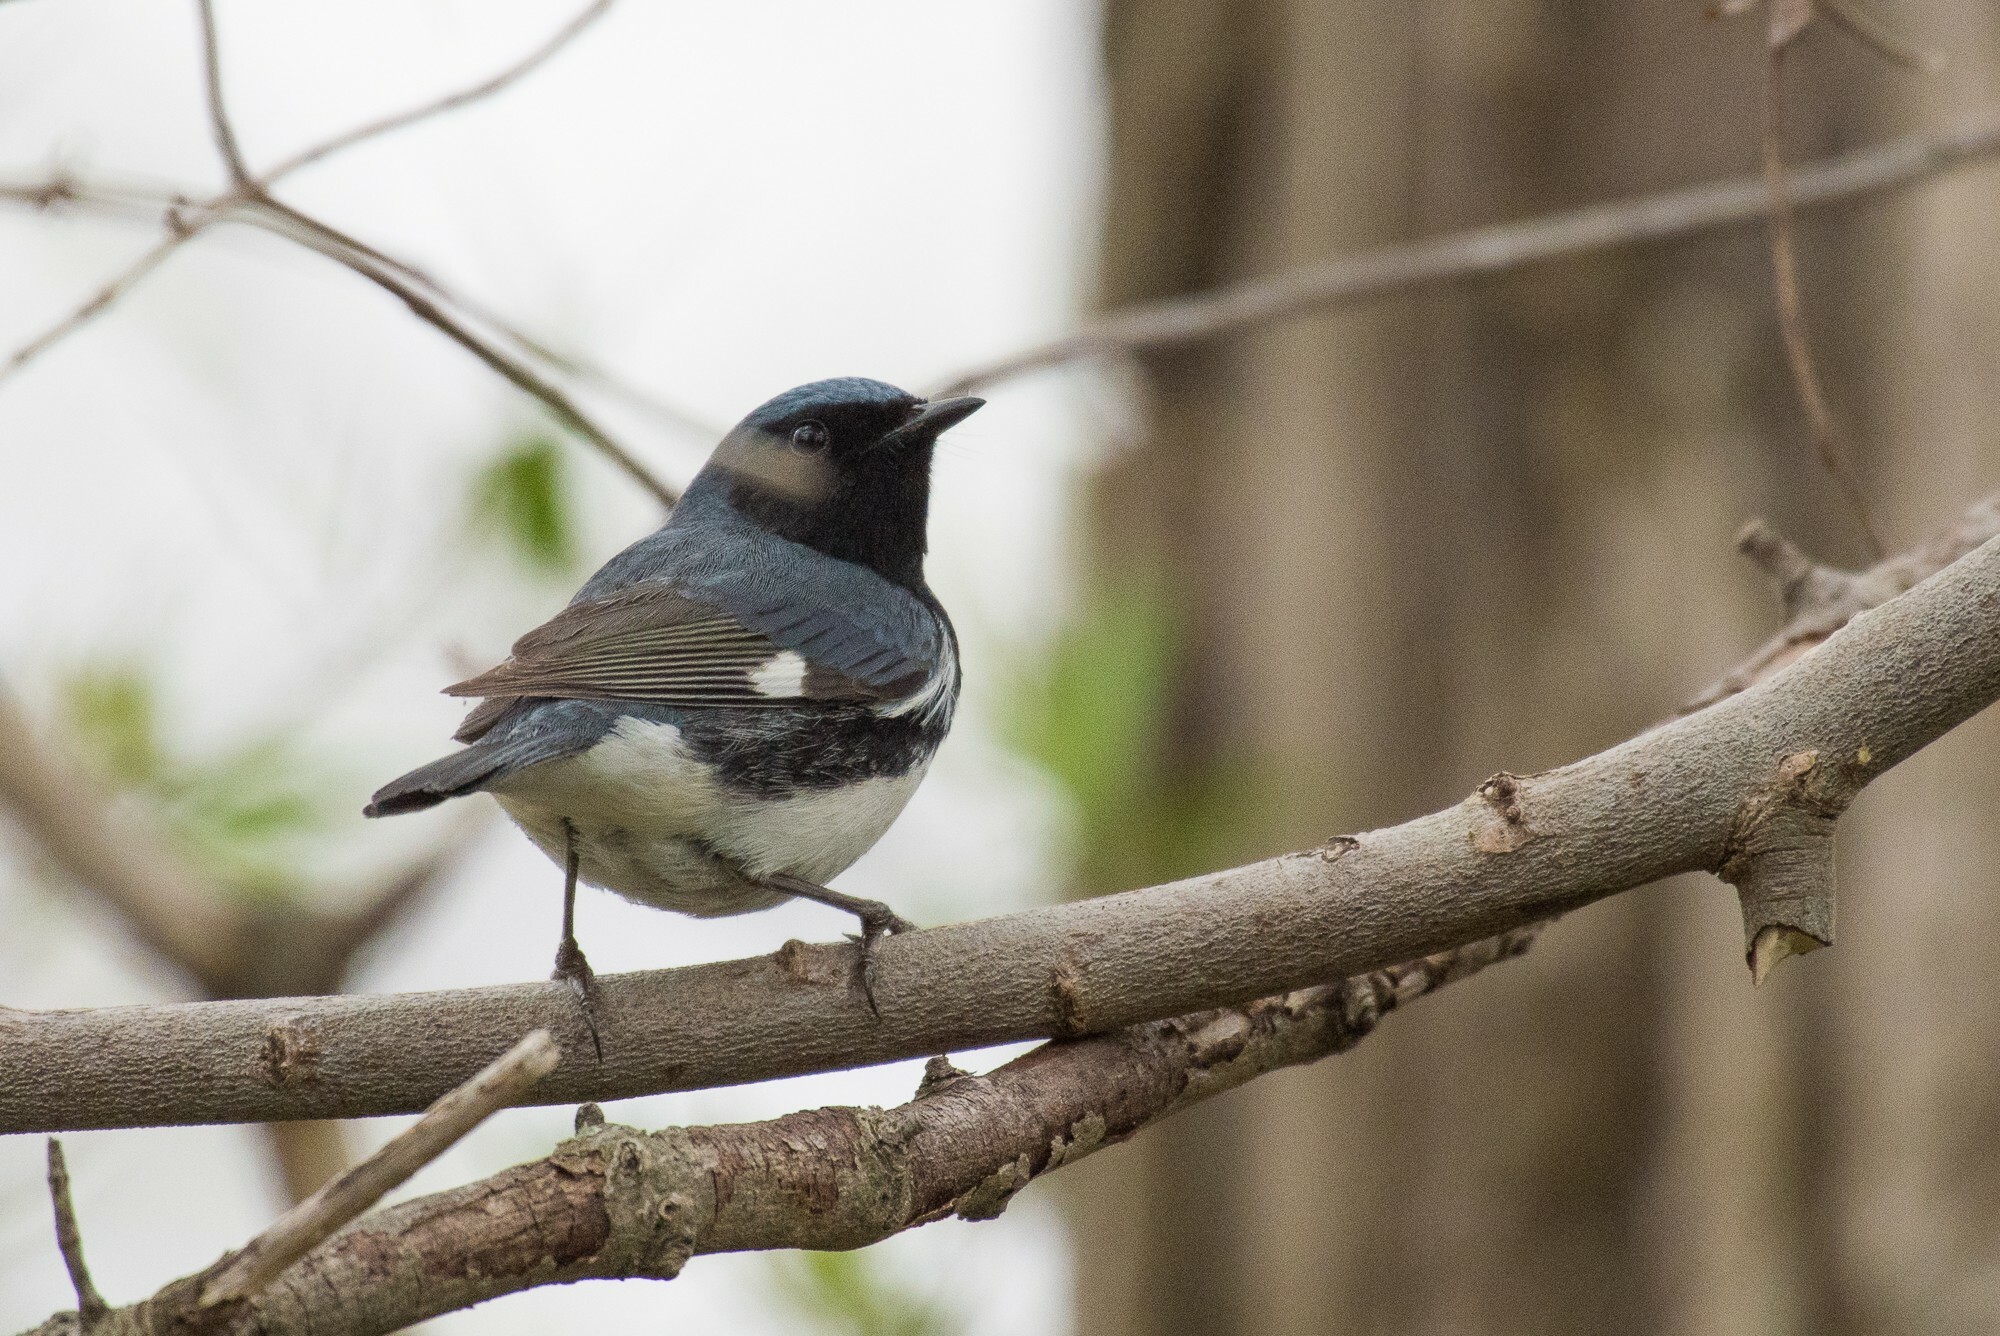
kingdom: Animalia
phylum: Chordata
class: Aves
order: Passeriformes
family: Parulidae
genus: Setophaga
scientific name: Setophaga caerulescens
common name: Black-throated blue warbler
